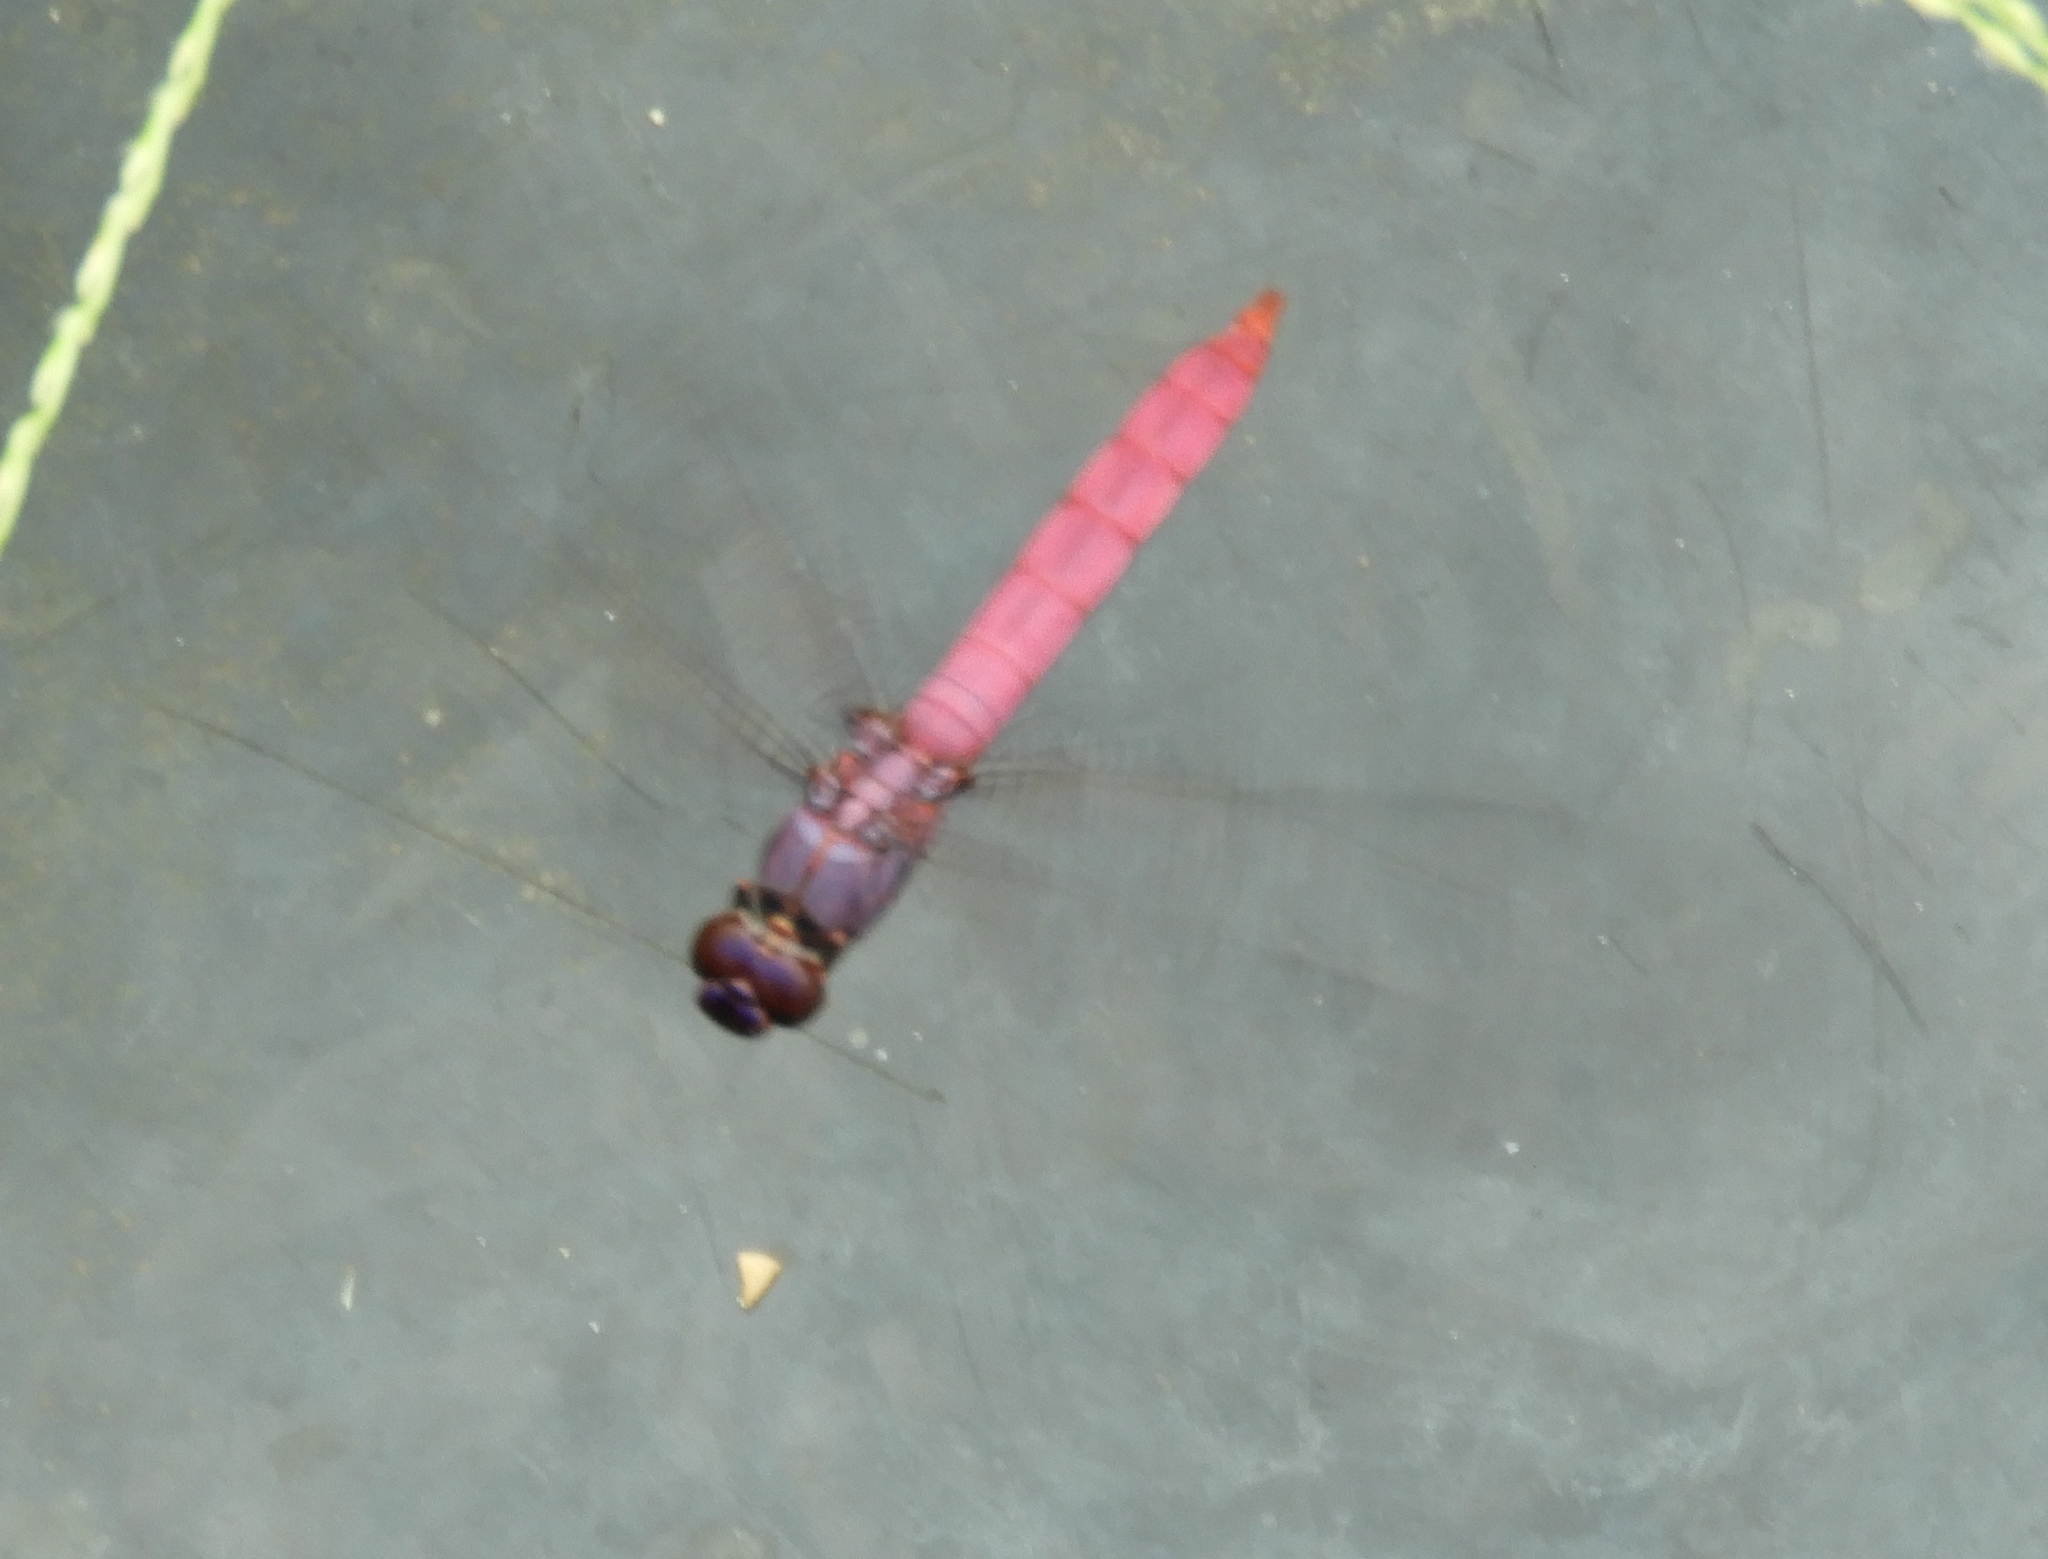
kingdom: Animalia
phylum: Arthropoda
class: Insecta
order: Odonata
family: Libellulidae
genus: Orthemis
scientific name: Orthemis ferruginea
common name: Roseate skimmer
